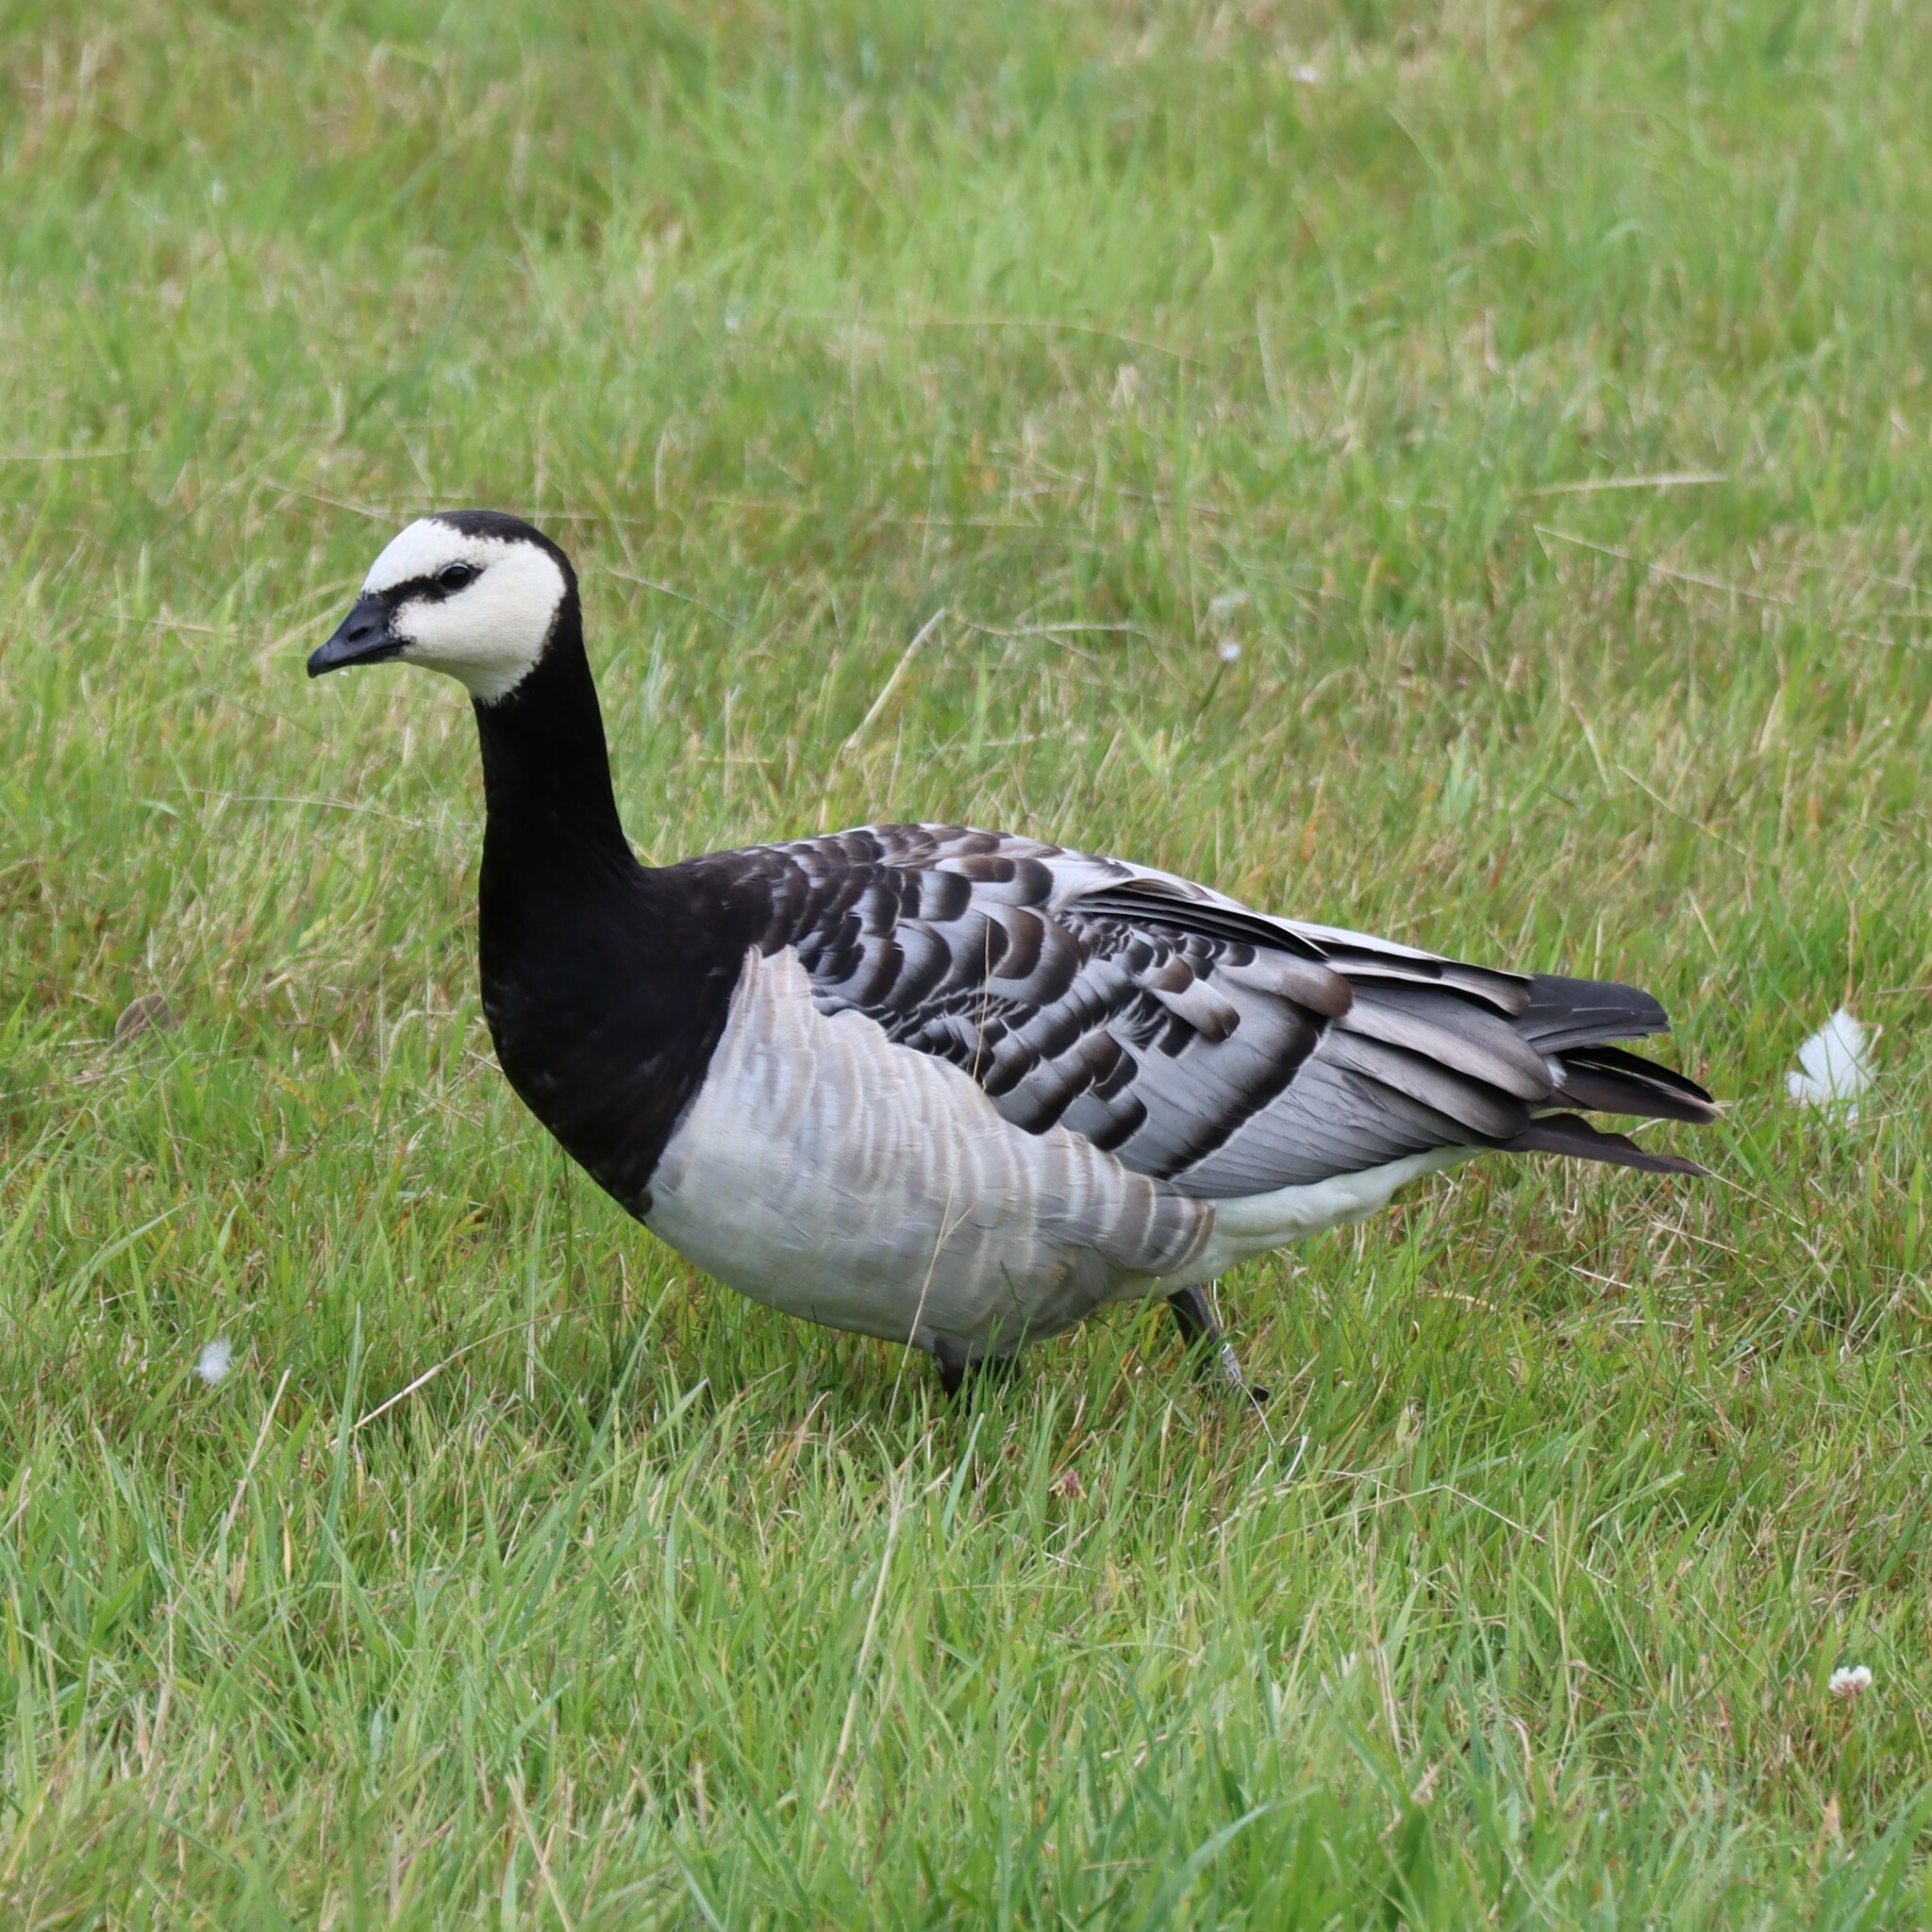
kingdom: Animalia
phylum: Chordata
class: Aves
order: Anseriformes
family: Anatidae
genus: Branta
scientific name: Branta leucopsis
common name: Barnacle goose
